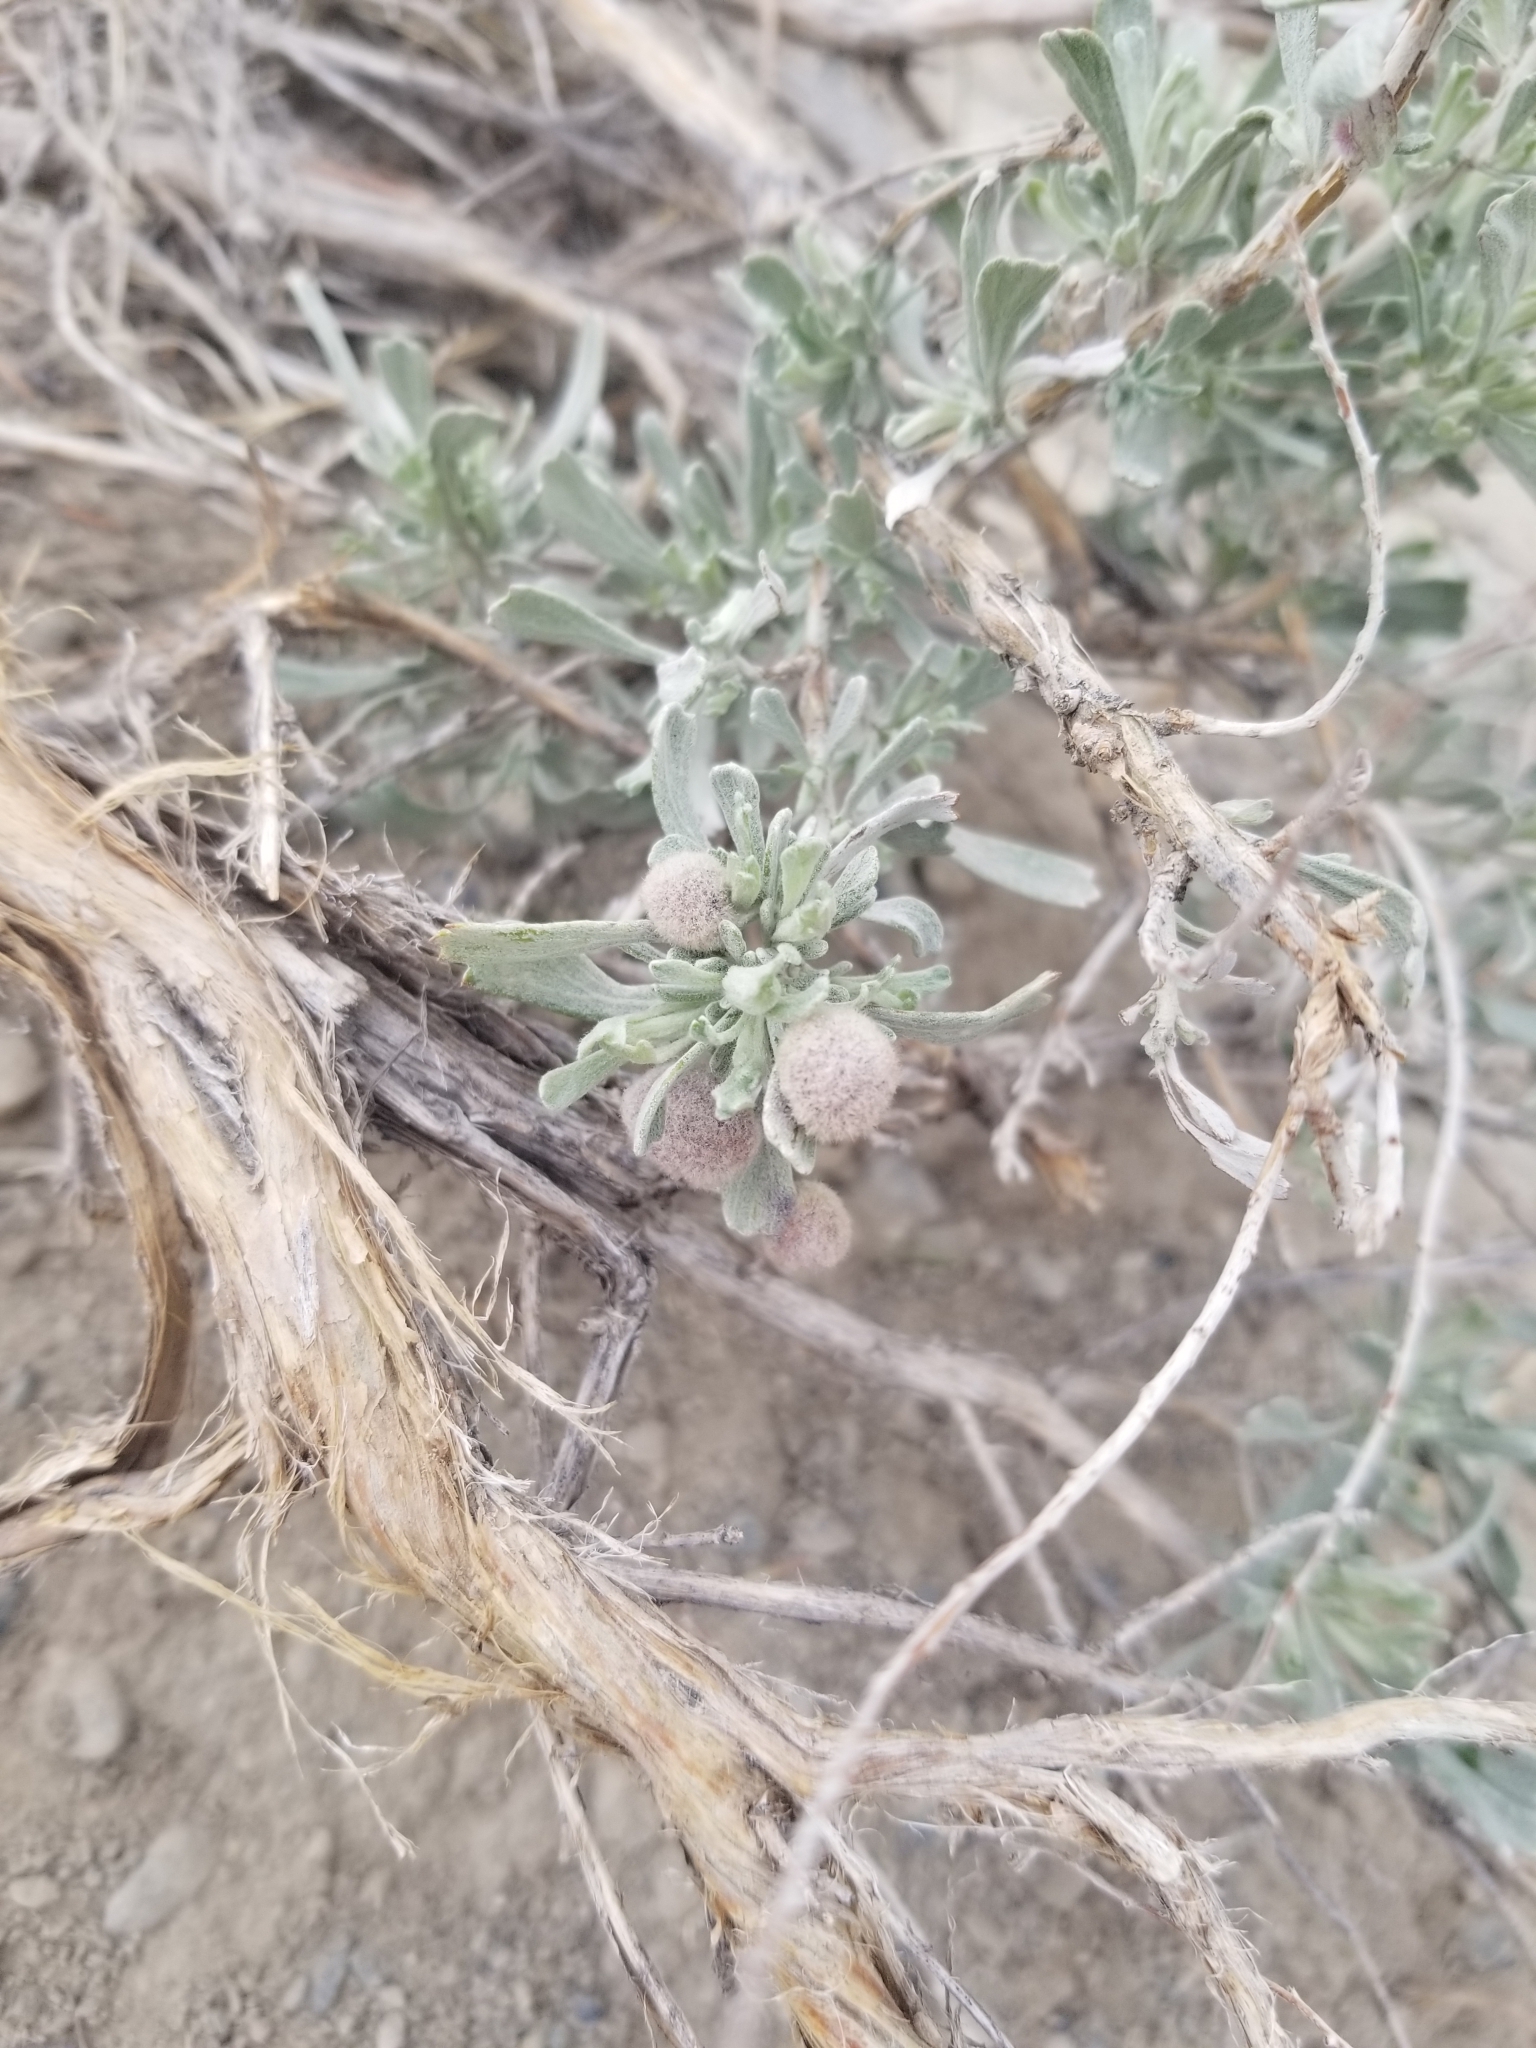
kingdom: Animalia
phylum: Arthropoda
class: Insecta
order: Diptera
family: Cecidomyiidae
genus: Rhopalomyia
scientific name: Rhopalomyia hirtipomum
